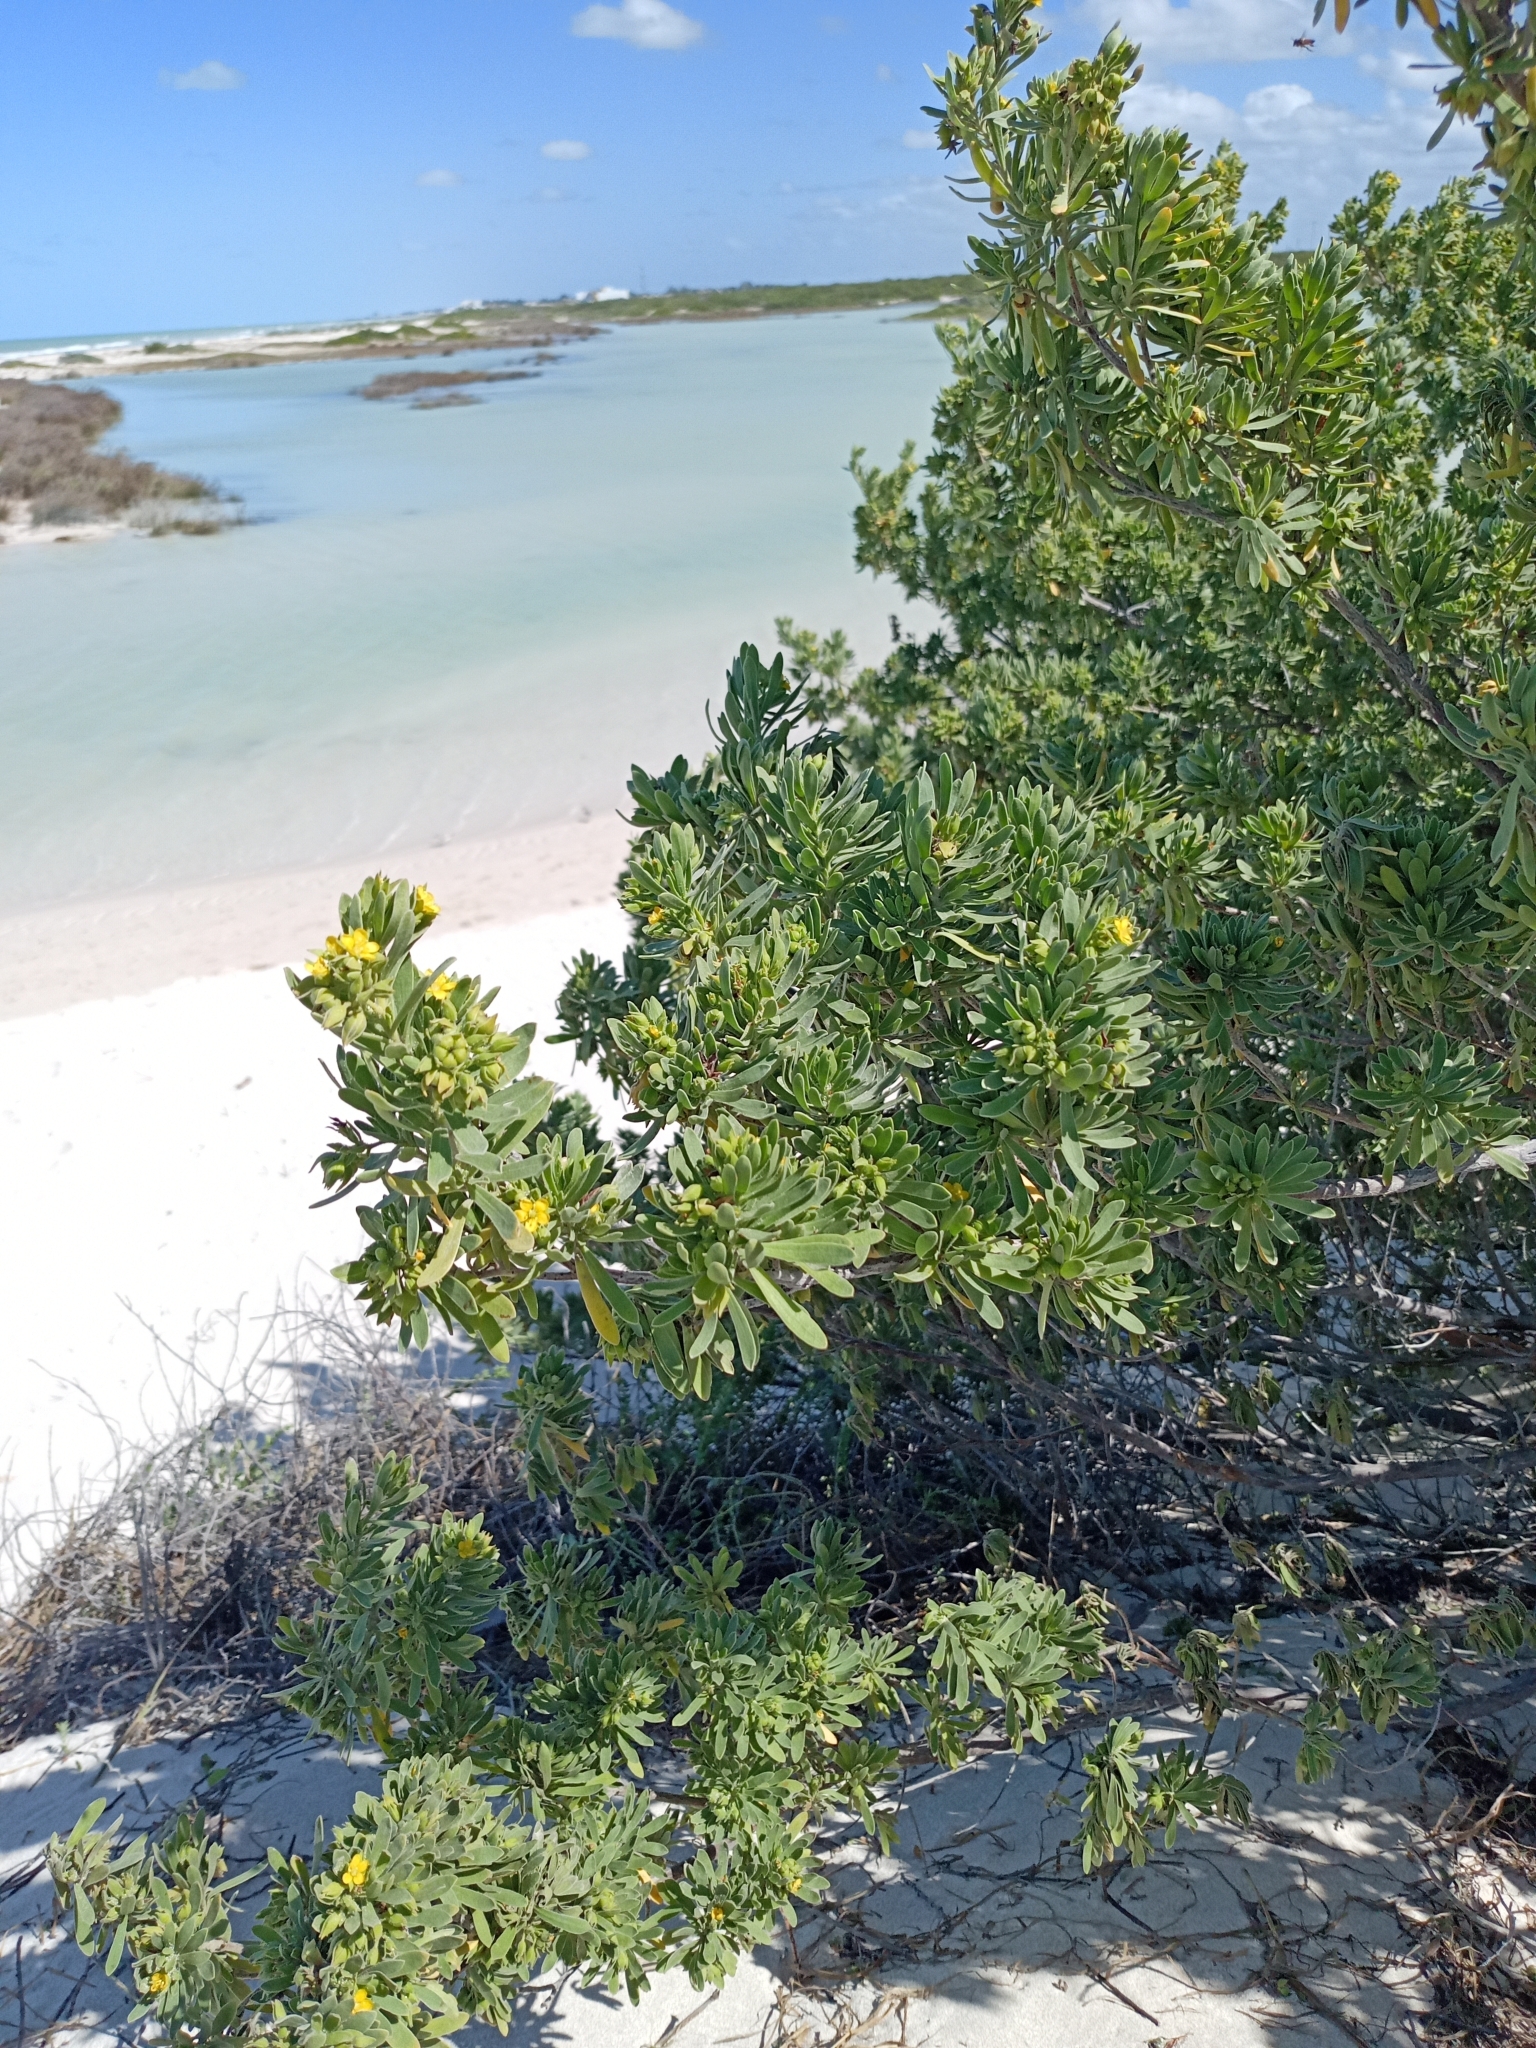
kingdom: Plantae
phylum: Tracheophyta
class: Magnoliopsida
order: Fabales
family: Surianaceae
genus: Suriana
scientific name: Suriana maritima
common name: Bay-cedar
